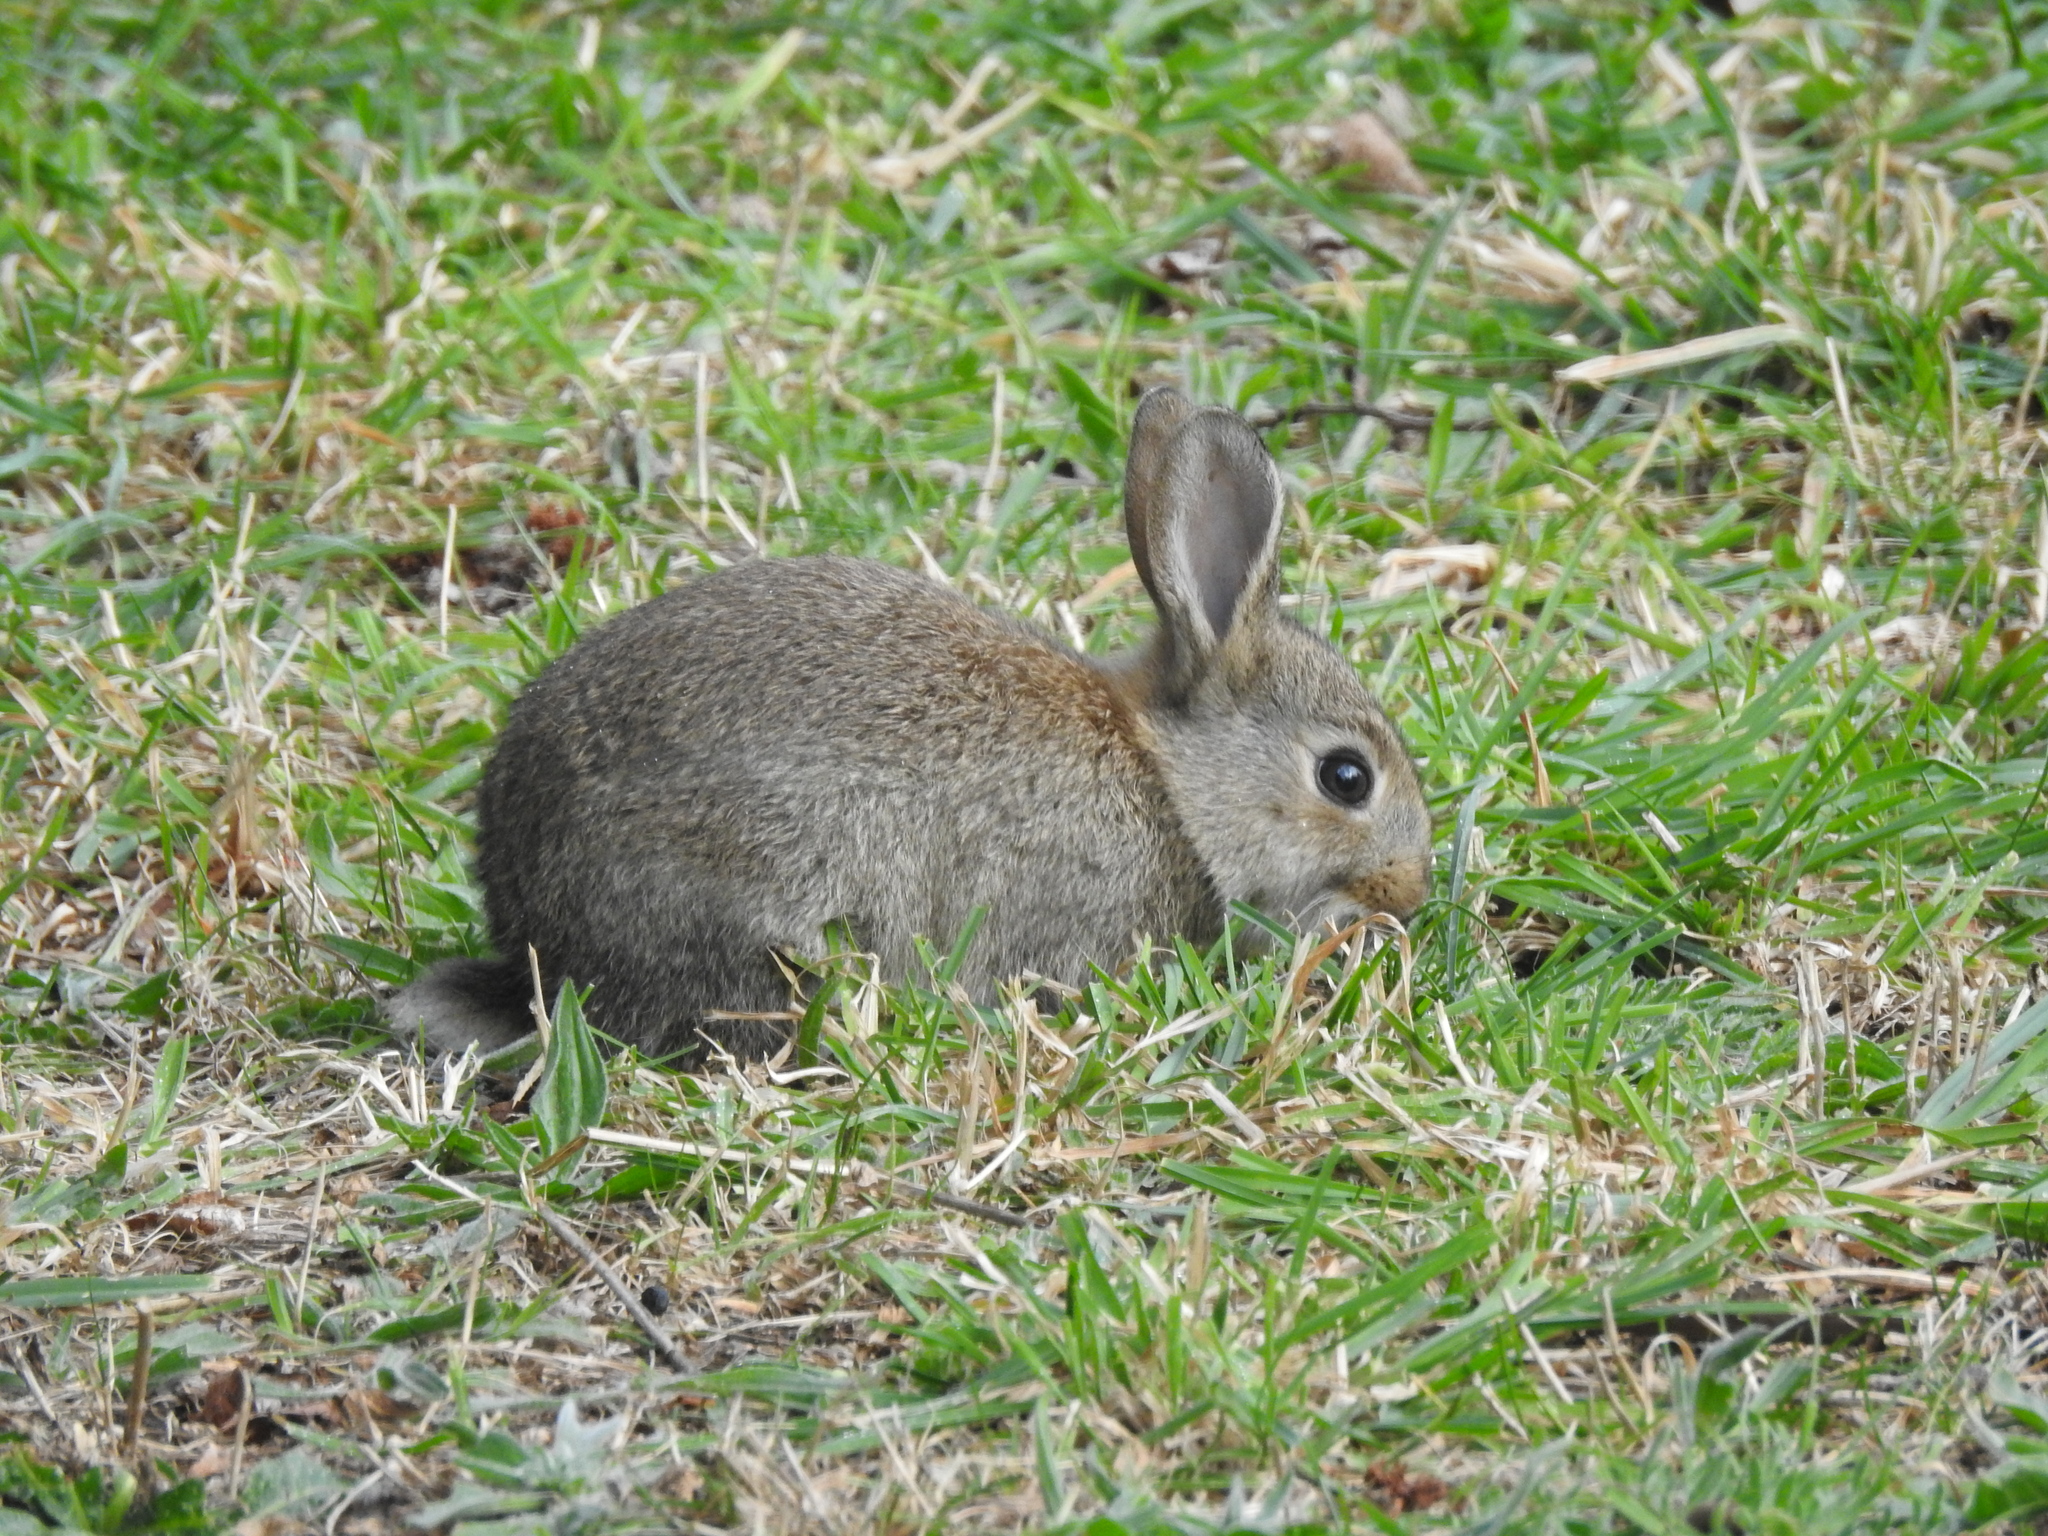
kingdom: Animalia
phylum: Chordata
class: Mammalia
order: Lagomorpha
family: Leporidae
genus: Oryctolagus
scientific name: Oryctolagus cuniculus
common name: European rabbit
